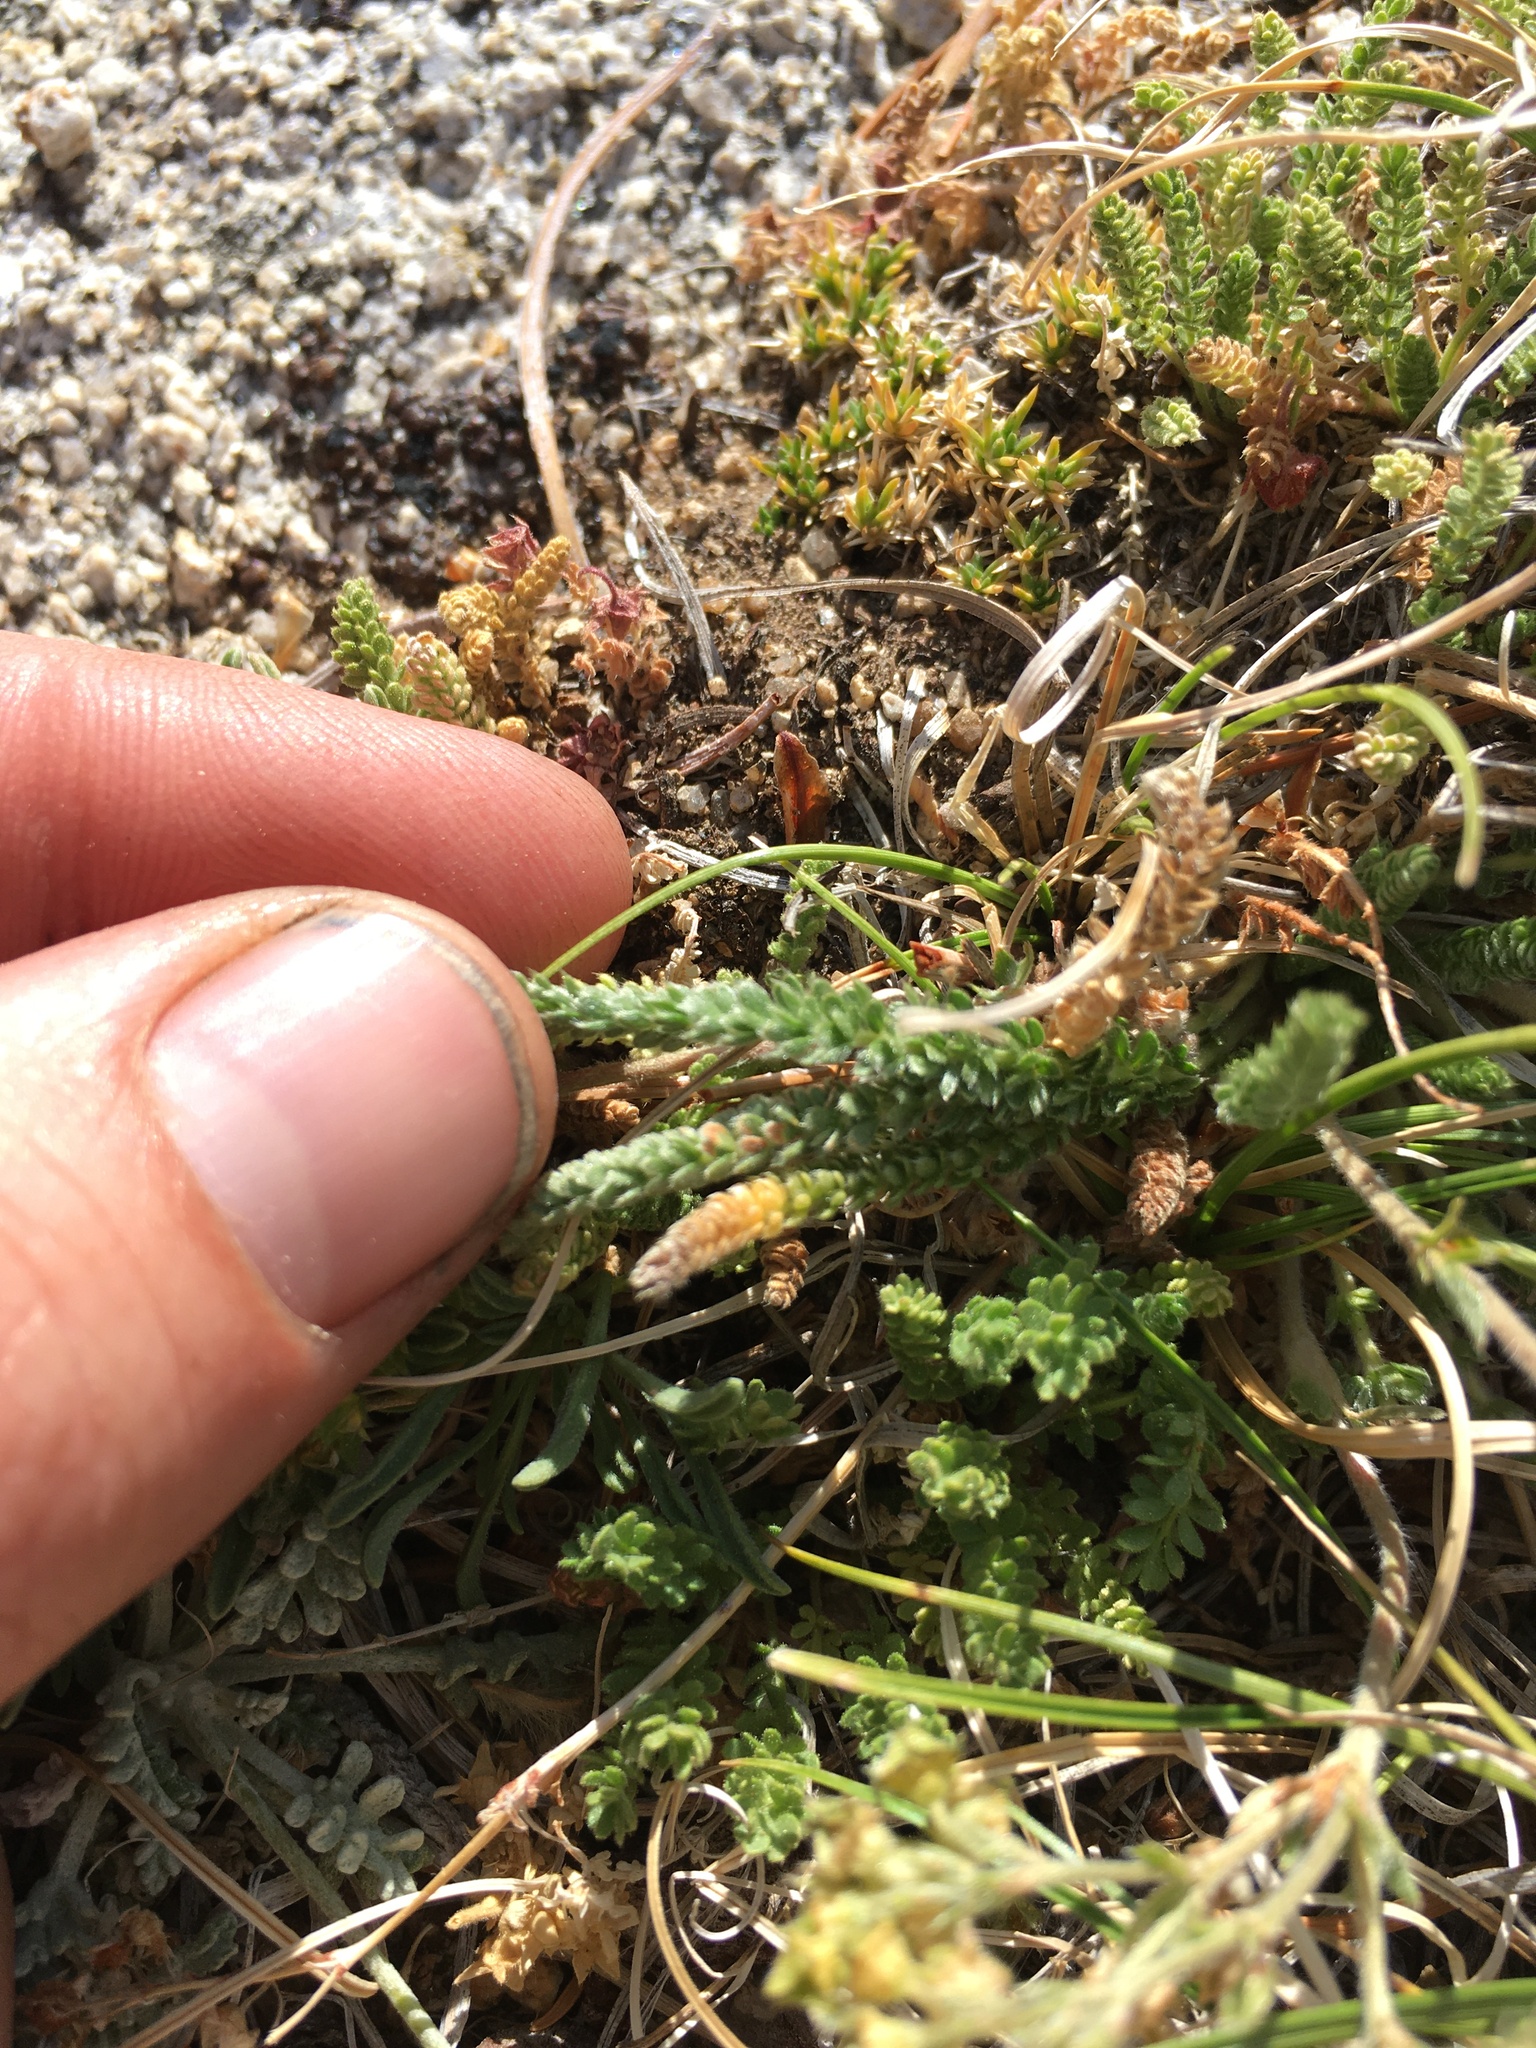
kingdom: Plantae
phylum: Tracheophyta
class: Magnoliopsida
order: Rosales
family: Rosaceae
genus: Potentilla
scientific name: Potentilla shockleyi
